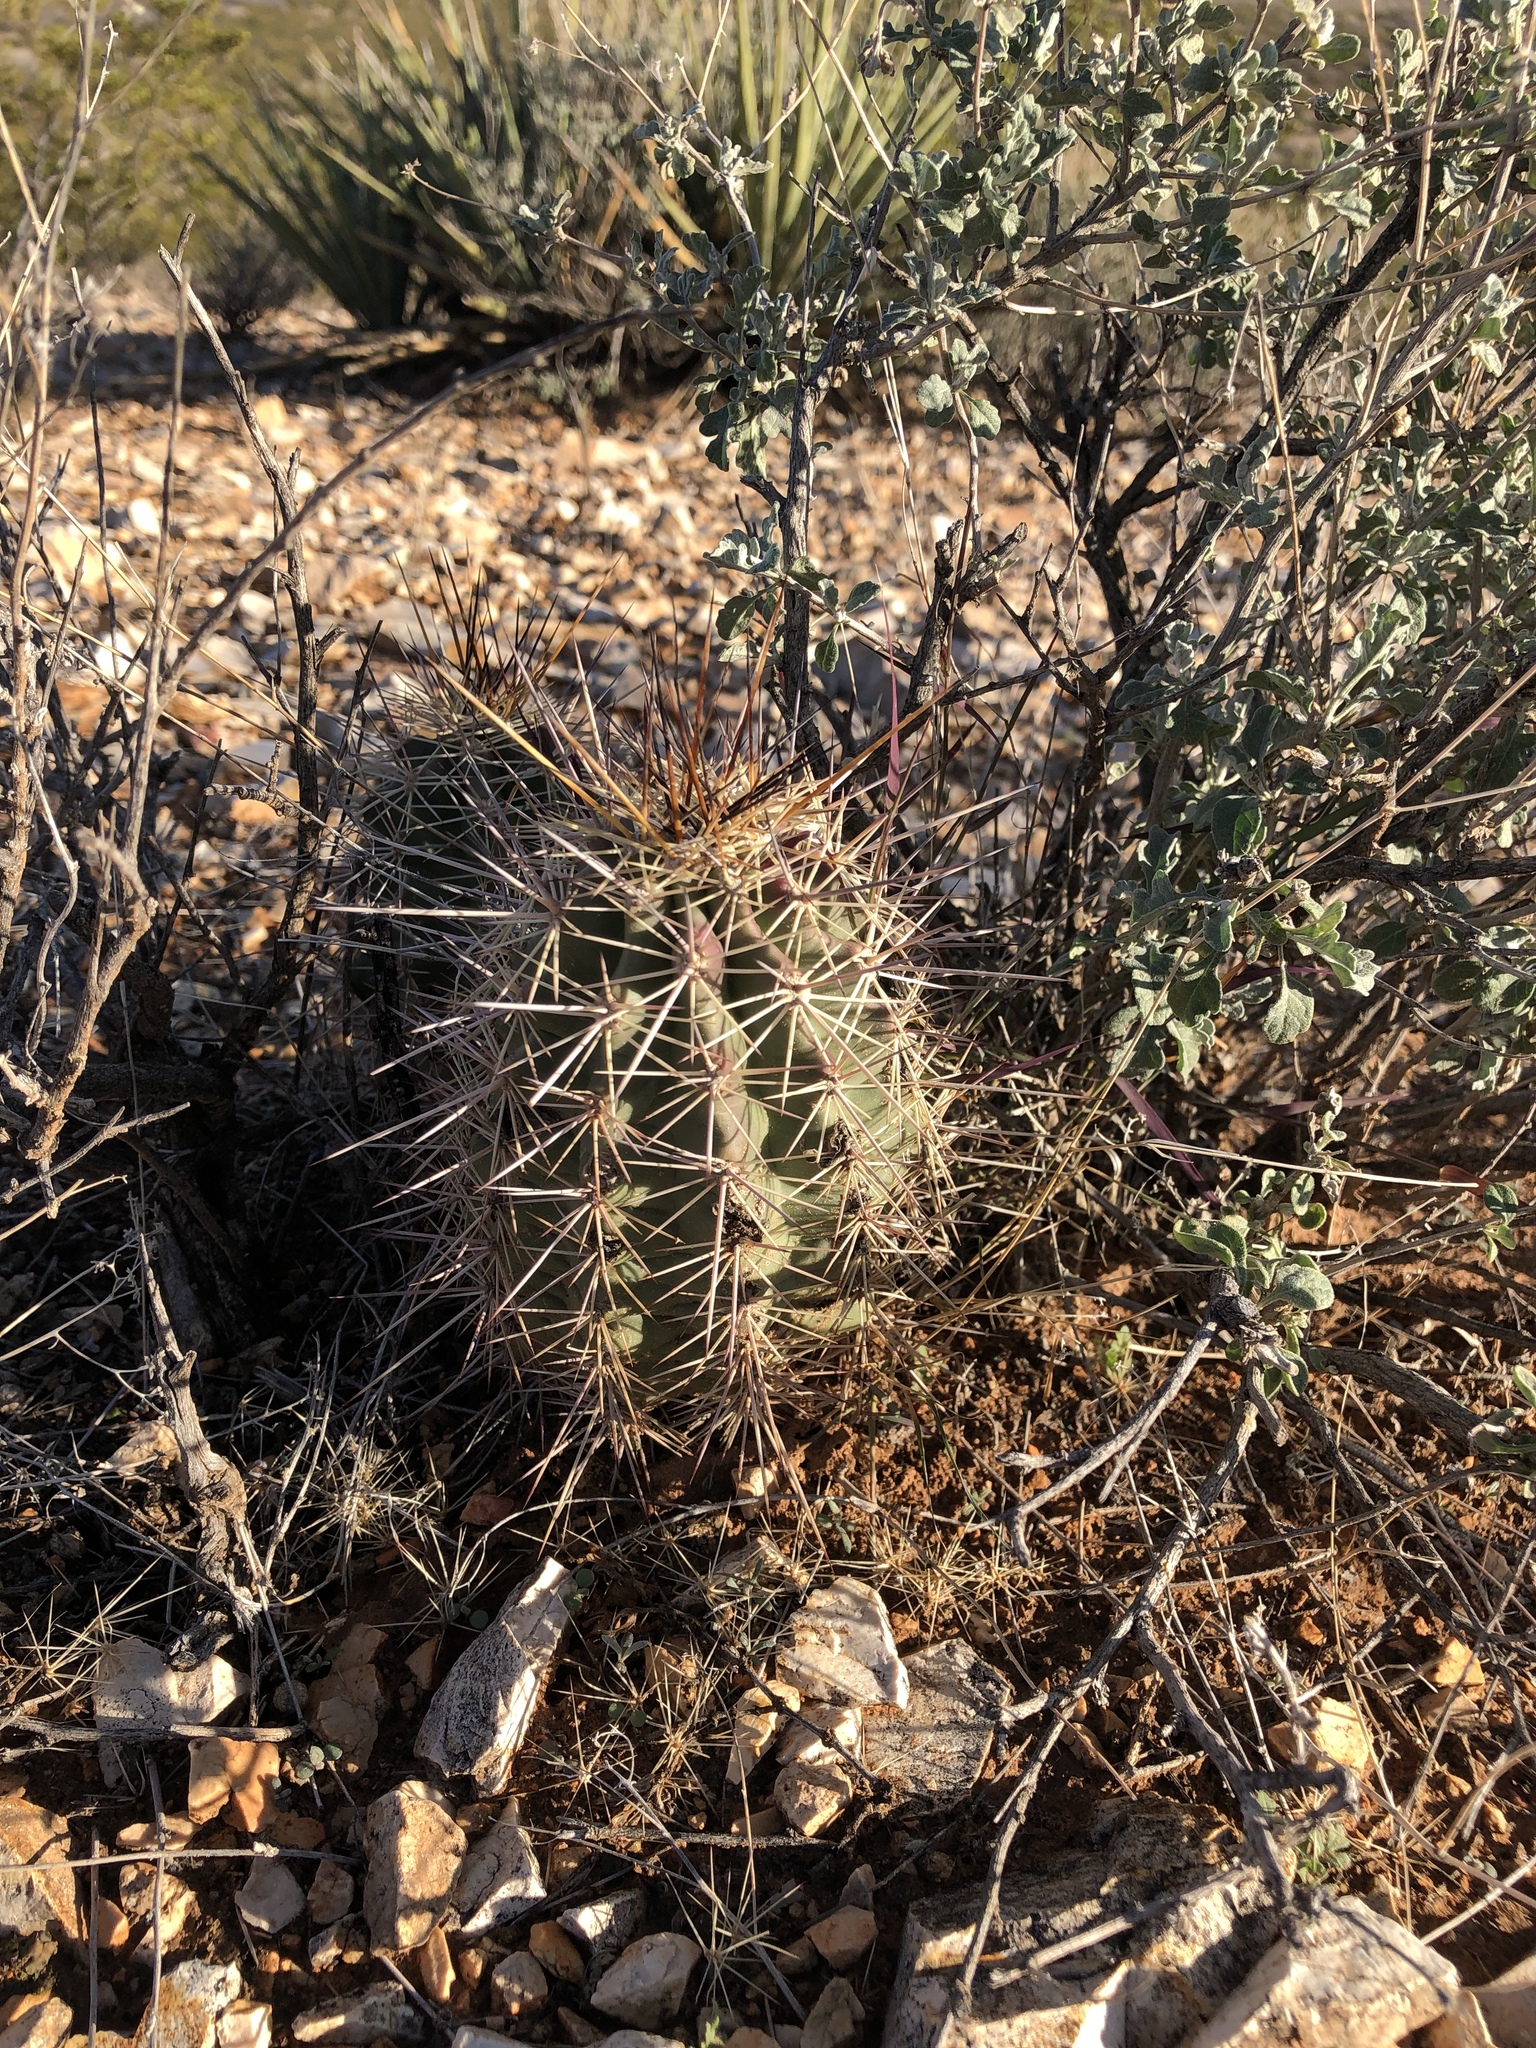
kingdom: Plantae
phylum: Tracheophyta
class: Magnoliopsida
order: Caryophyllales
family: Cactaceae
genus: Echinocereus
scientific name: Echinocereus coccineus
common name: Scarlet hedgehog cactus
